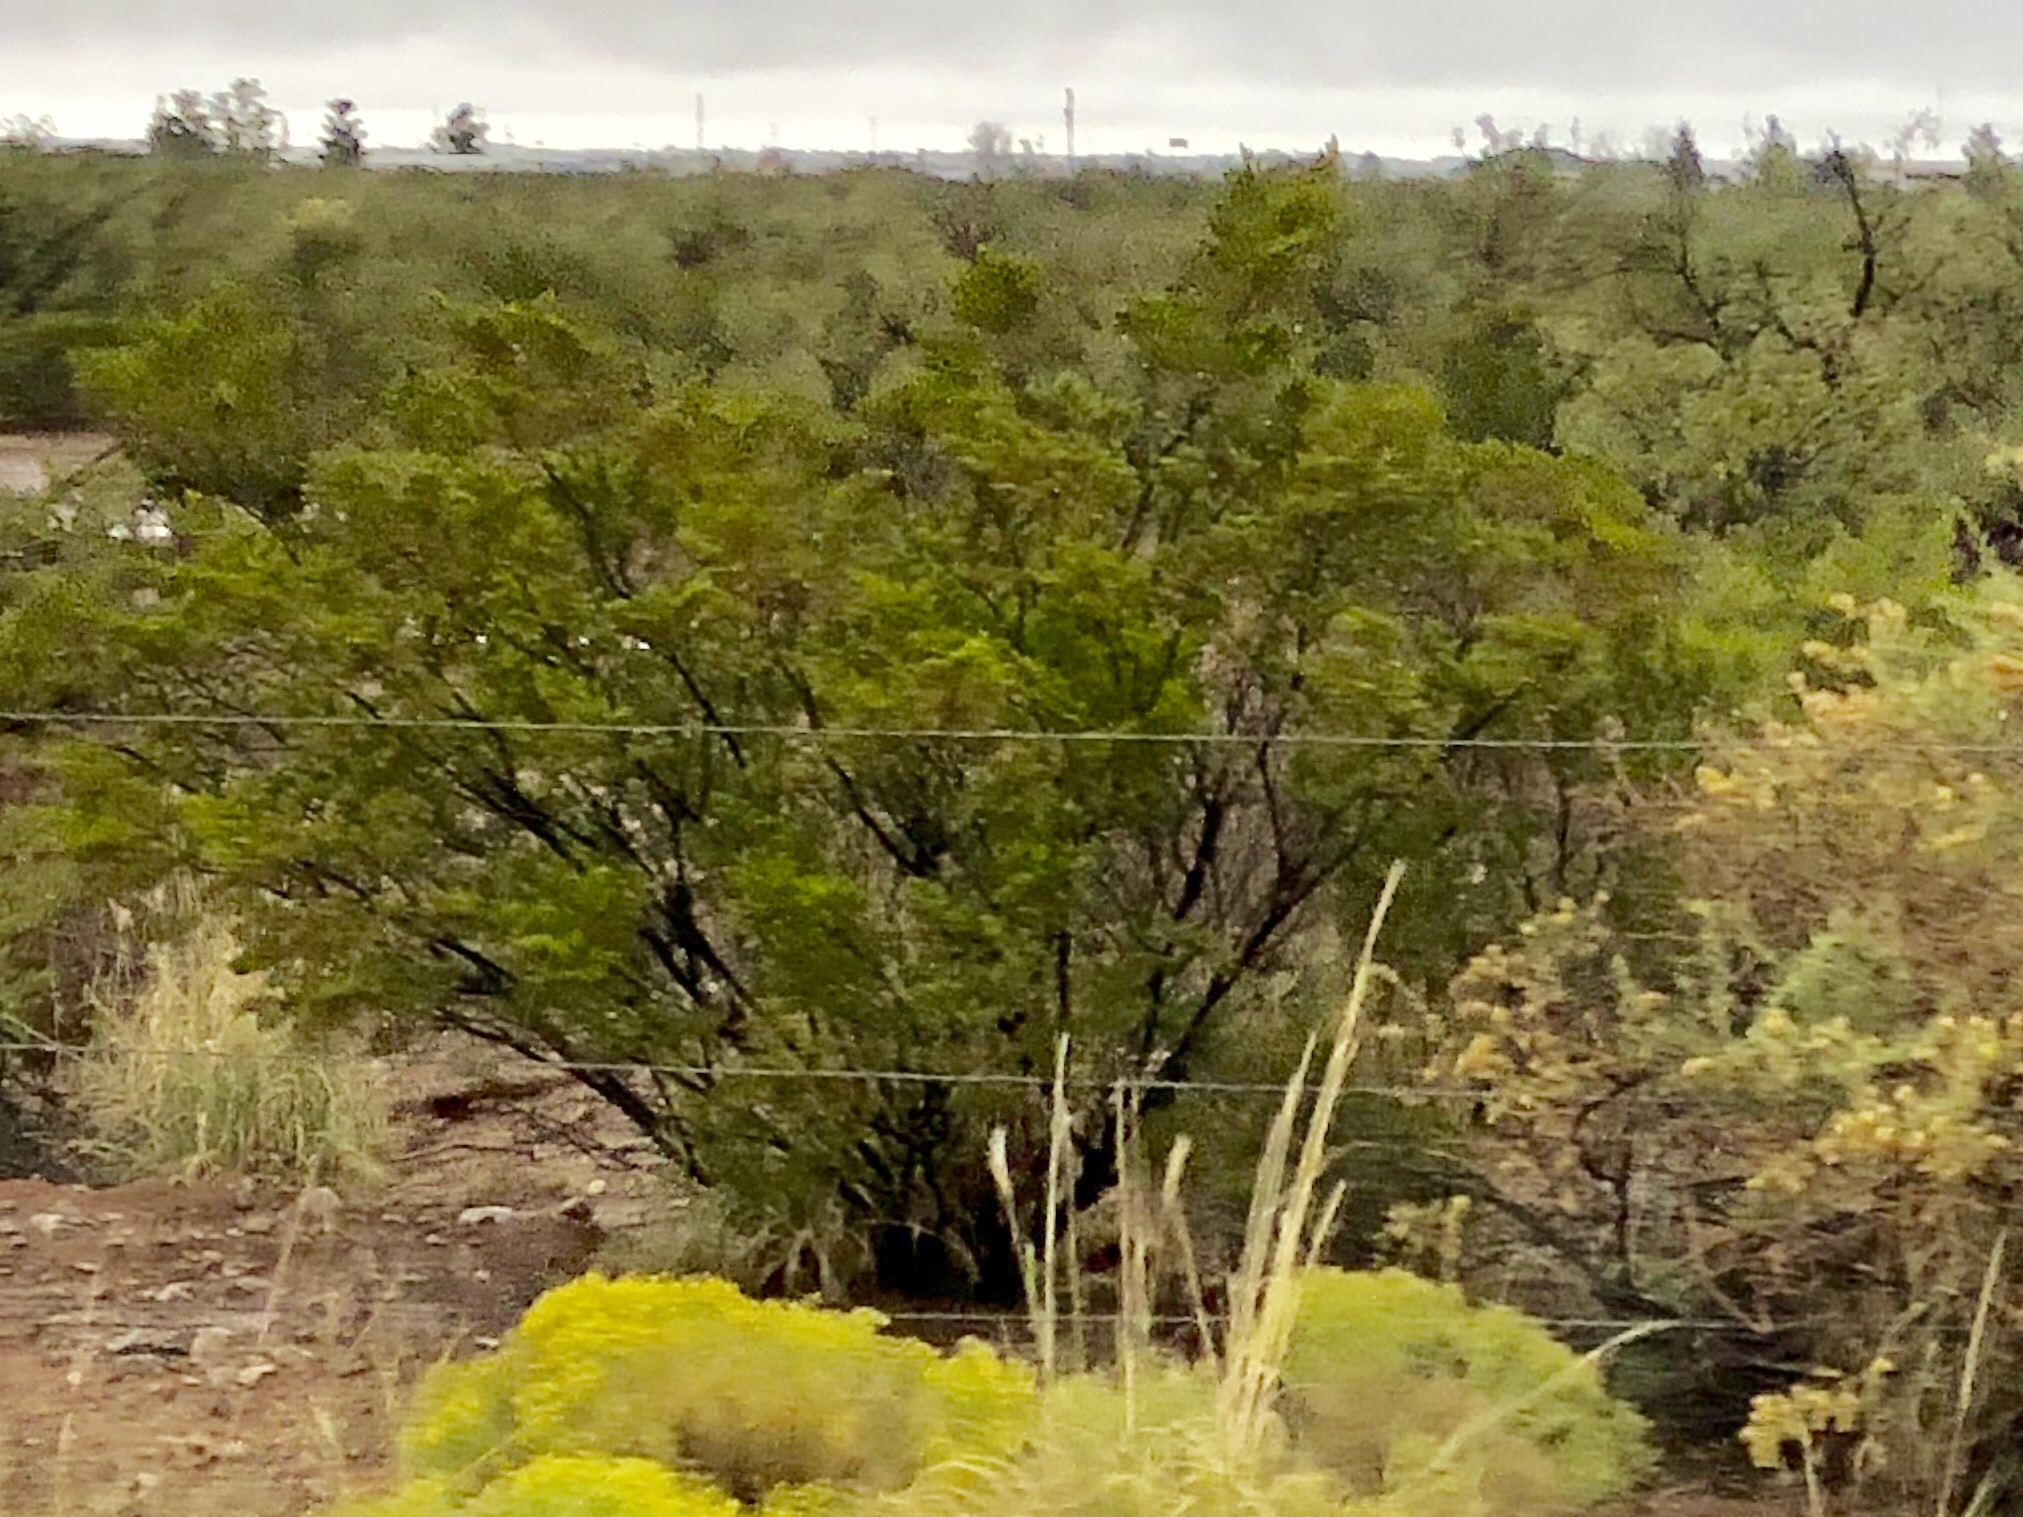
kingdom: Plantae
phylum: Tracheophyta
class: Magnoliopsida
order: Zygophyllales
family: Zygophyllaceae
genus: Larrea
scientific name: Larrea tridentata
